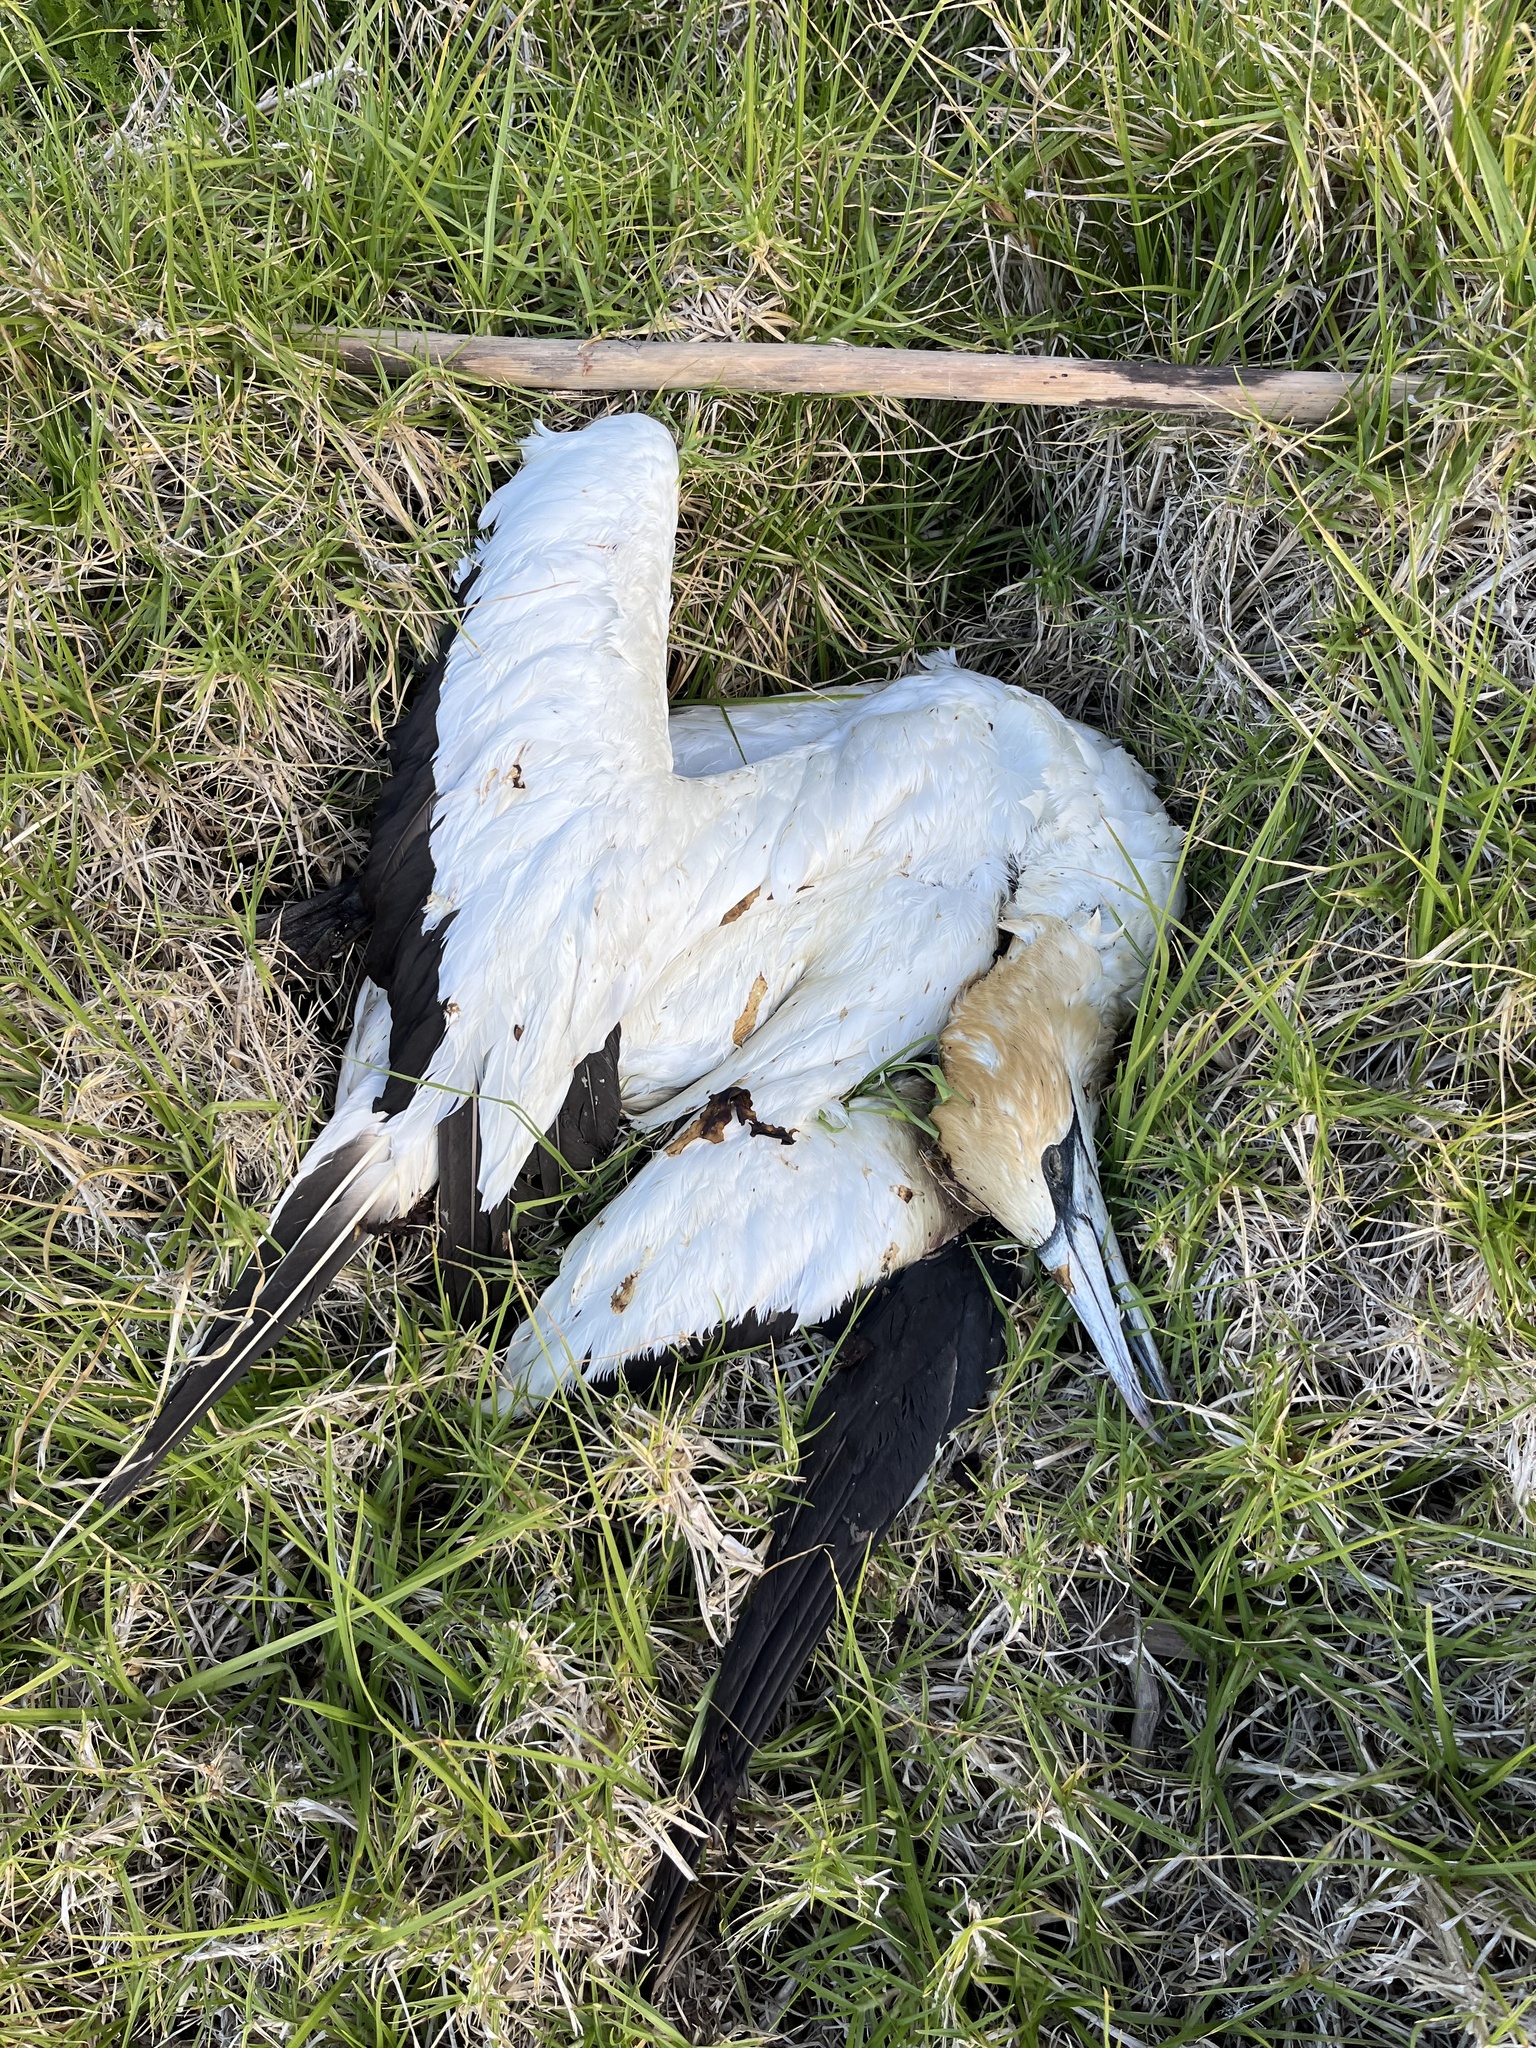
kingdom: Animalia
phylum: Chordata
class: Aves
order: Suliformes
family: Sulidae
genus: Morus
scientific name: Morus serrator
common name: Australasian gannet
